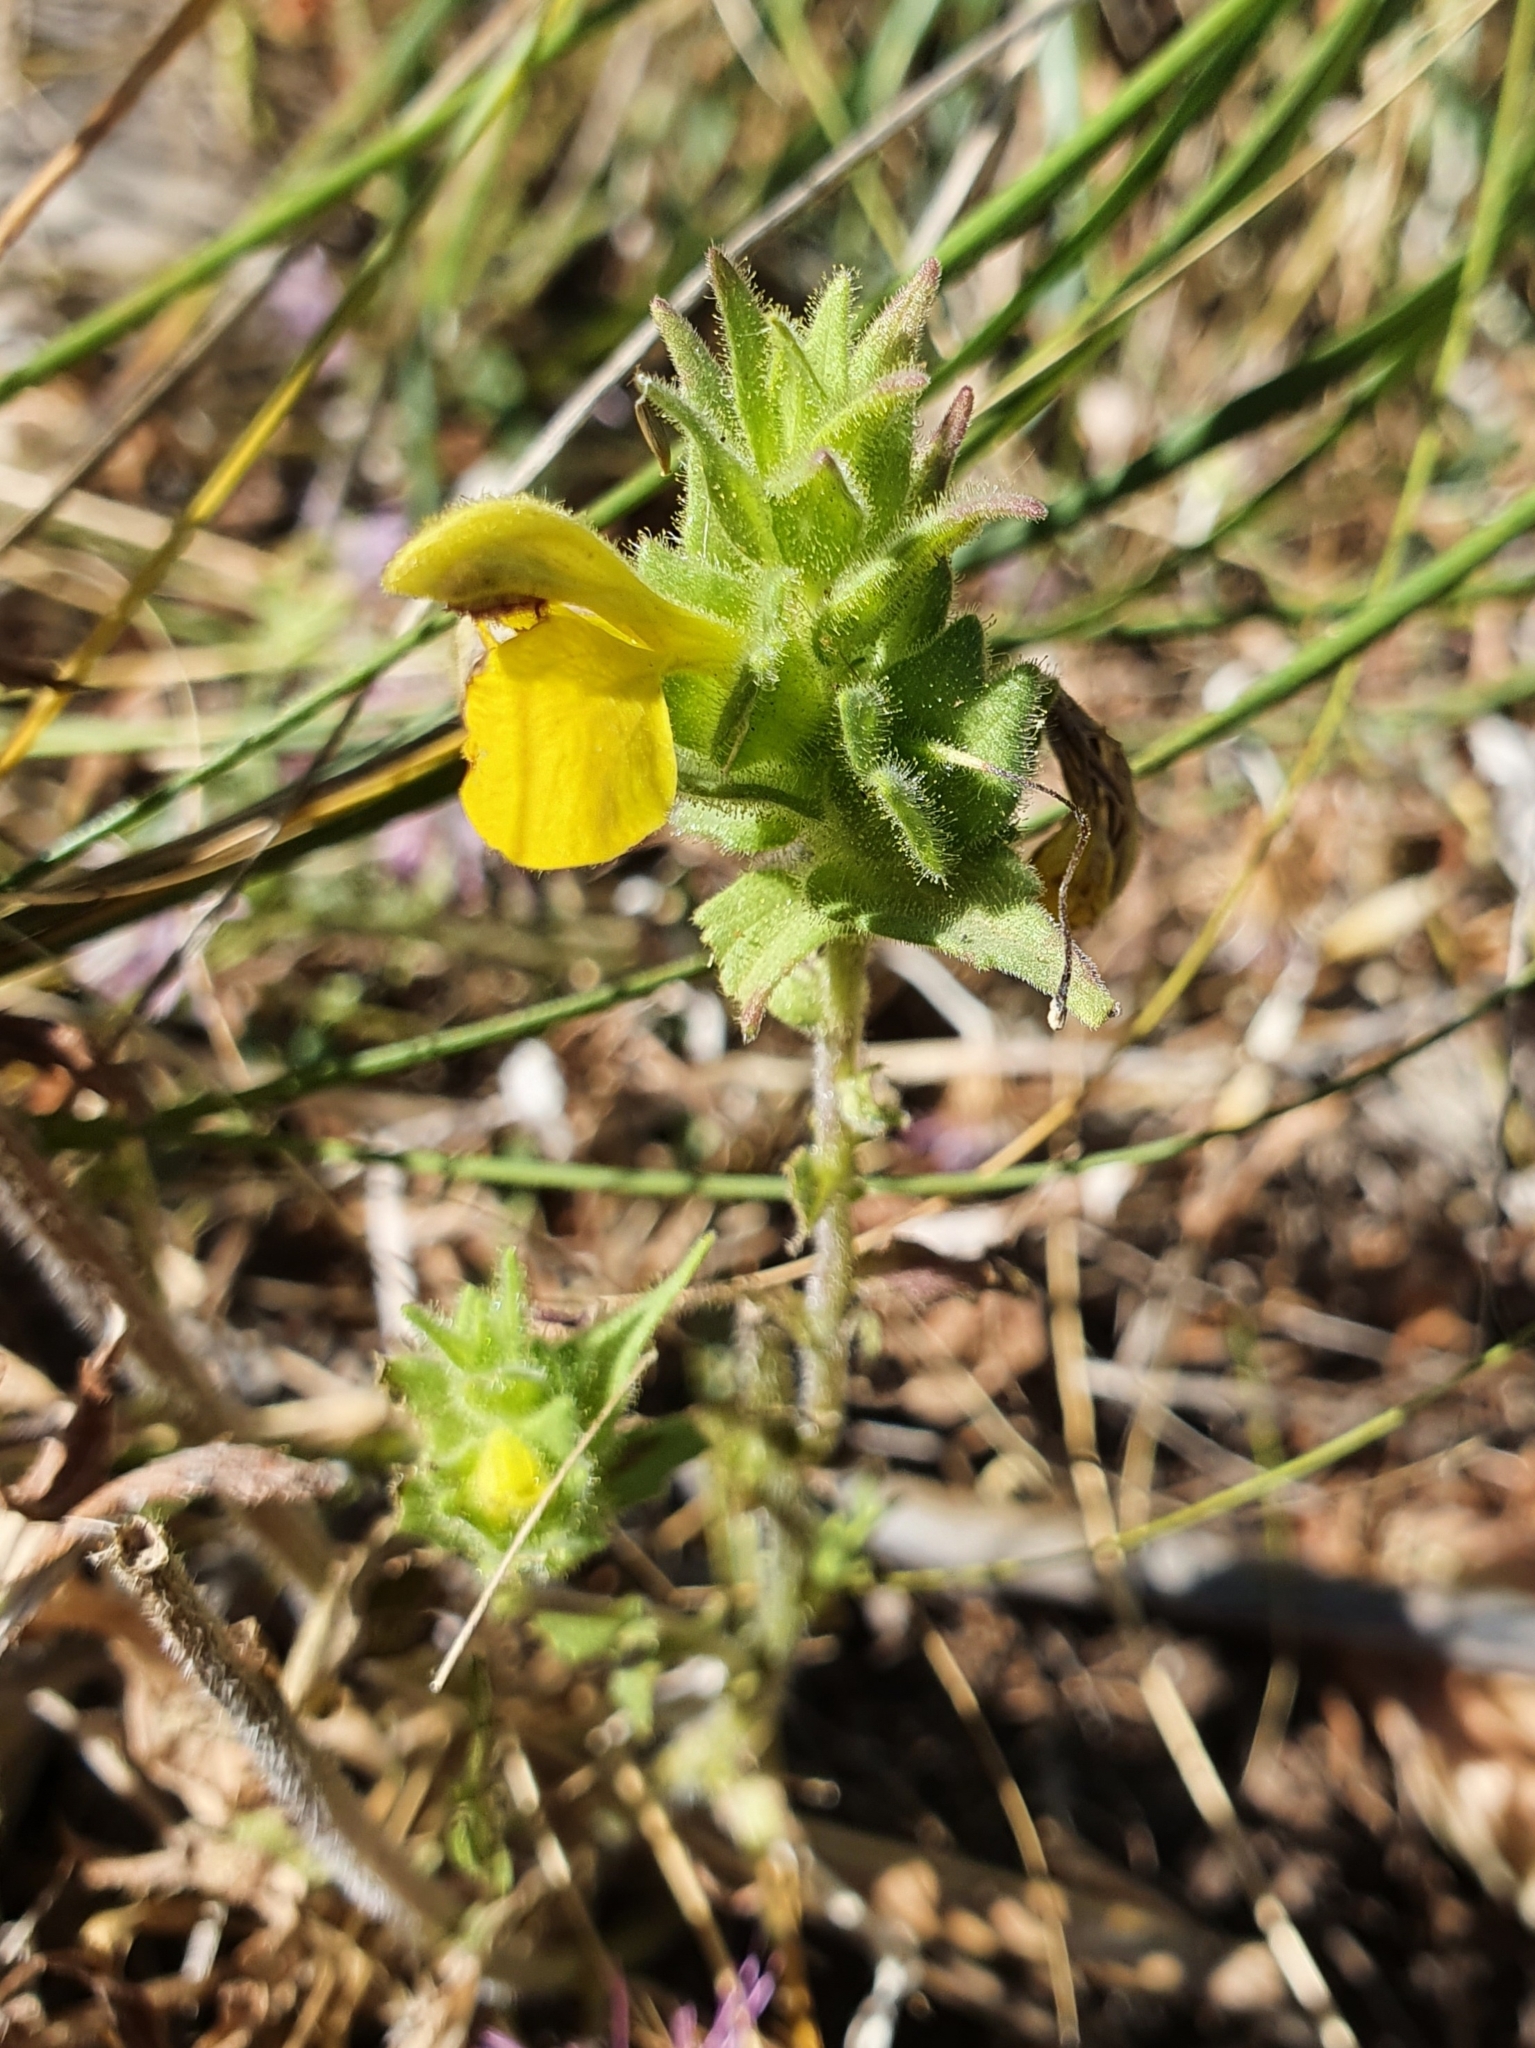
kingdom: Plantae
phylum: Tracheophyta
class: Magnoliopsida
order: Lamiales
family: Orobanchaceae
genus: Bellardia
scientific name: Bellardia trixago
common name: Mediterranean lineseed
